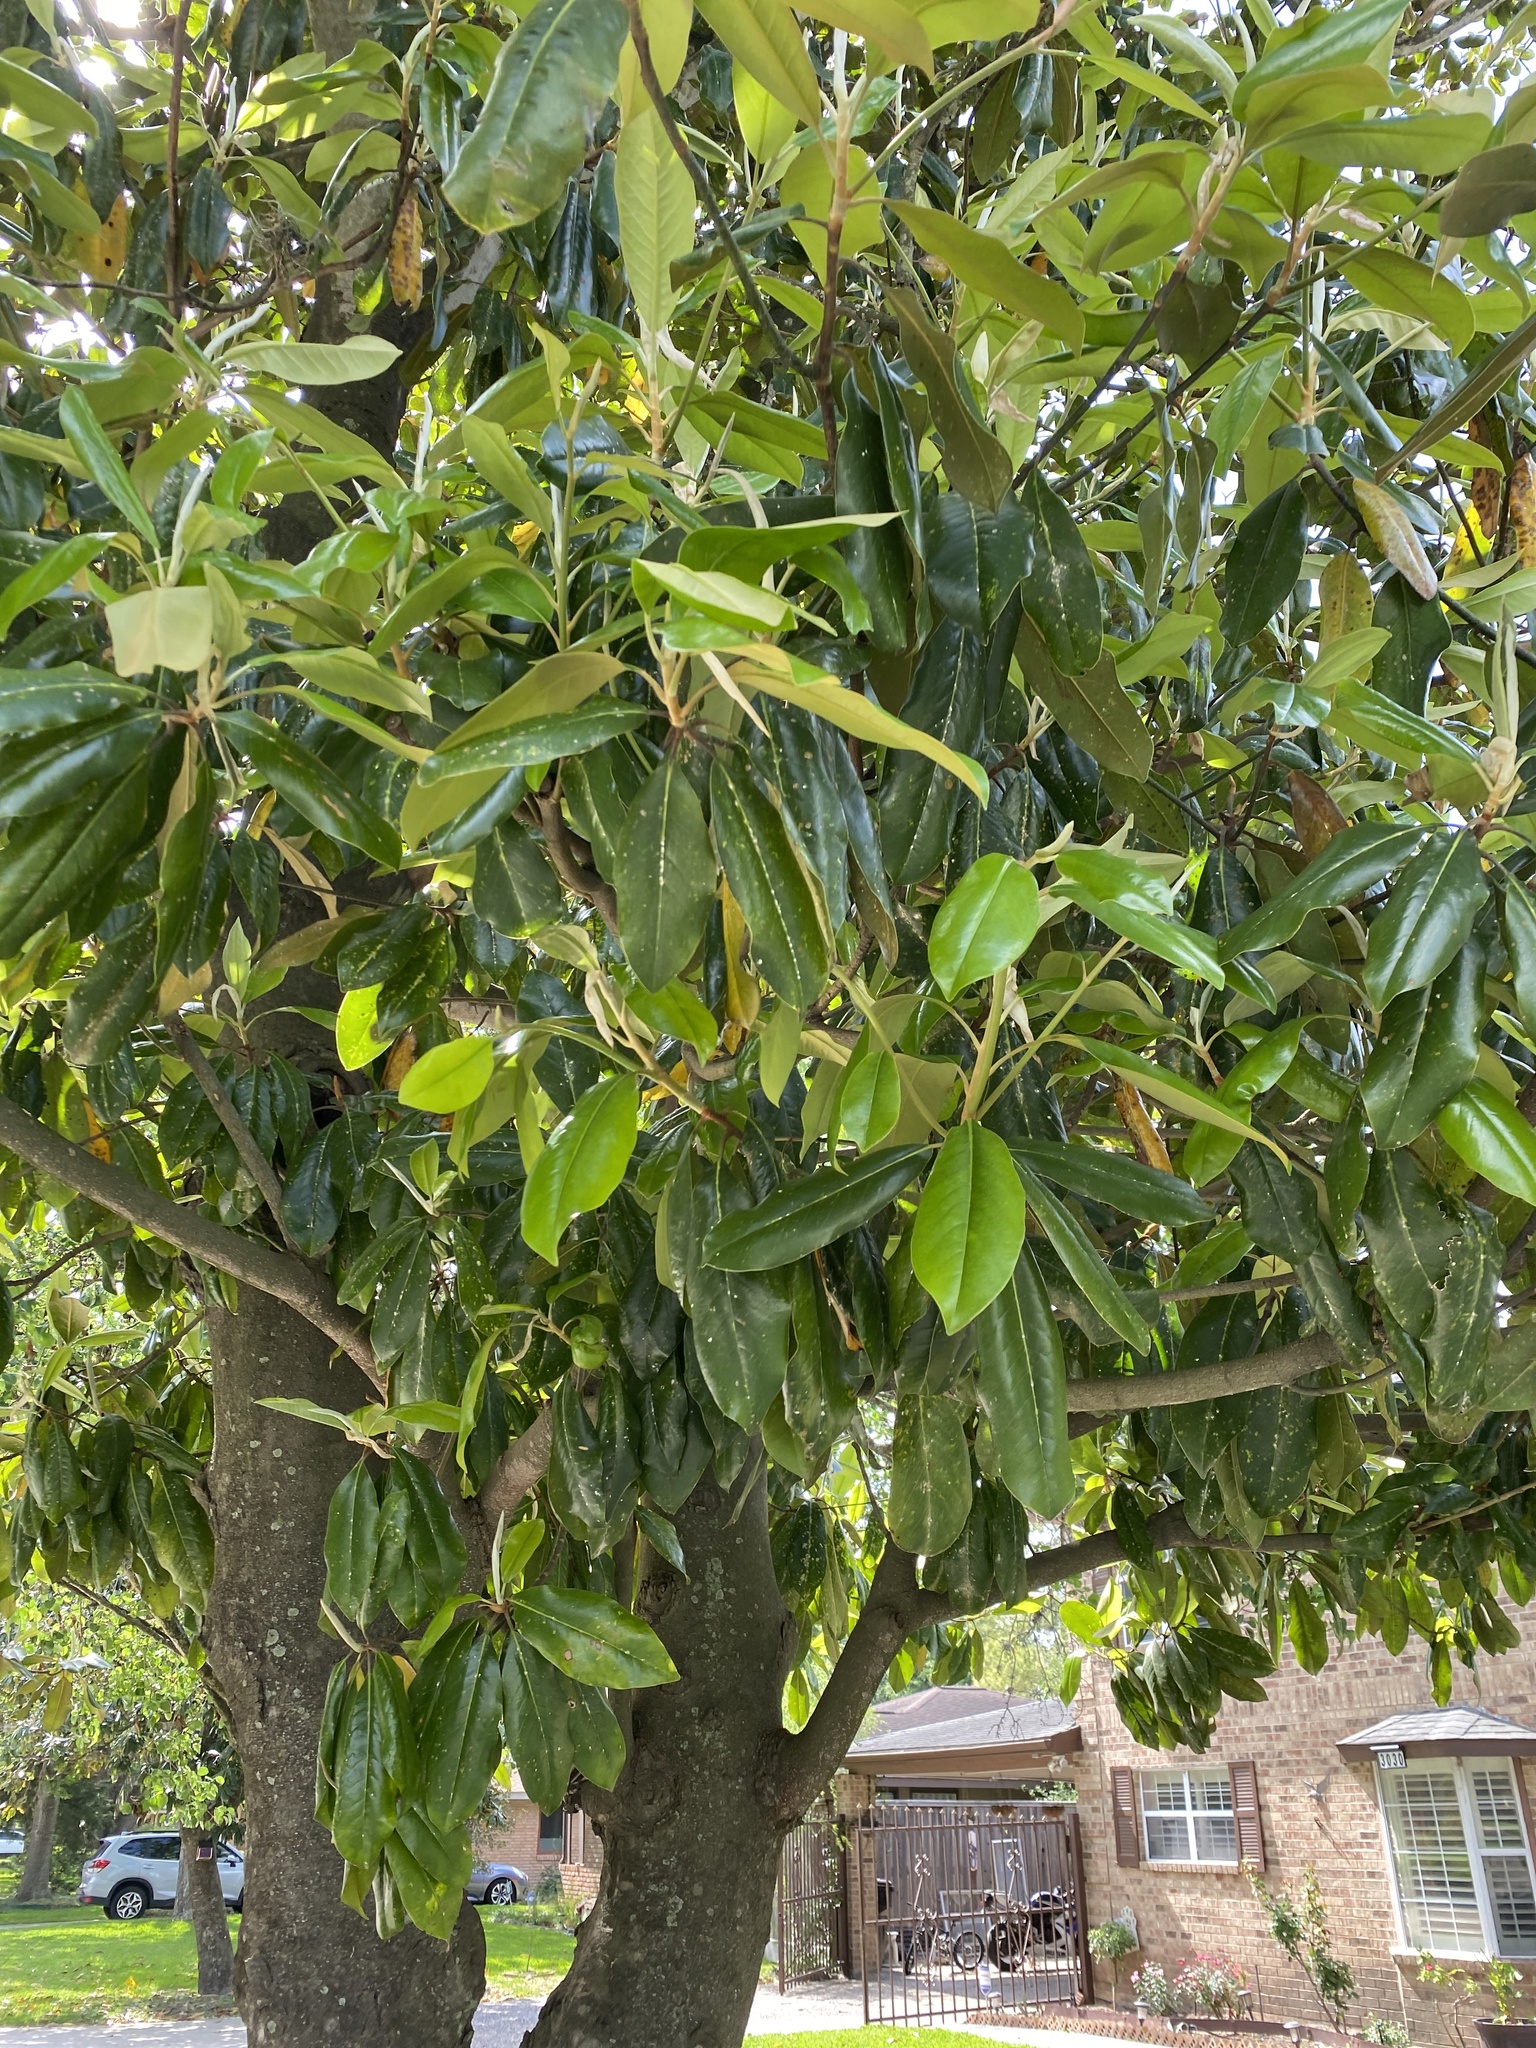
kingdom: Plantae
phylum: Tracheophyta
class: Magnoliopsida
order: Magnoliales
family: Magnoliaceae
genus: Magnolia
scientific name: Magnolia grandiflora
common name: Southern magnolia
